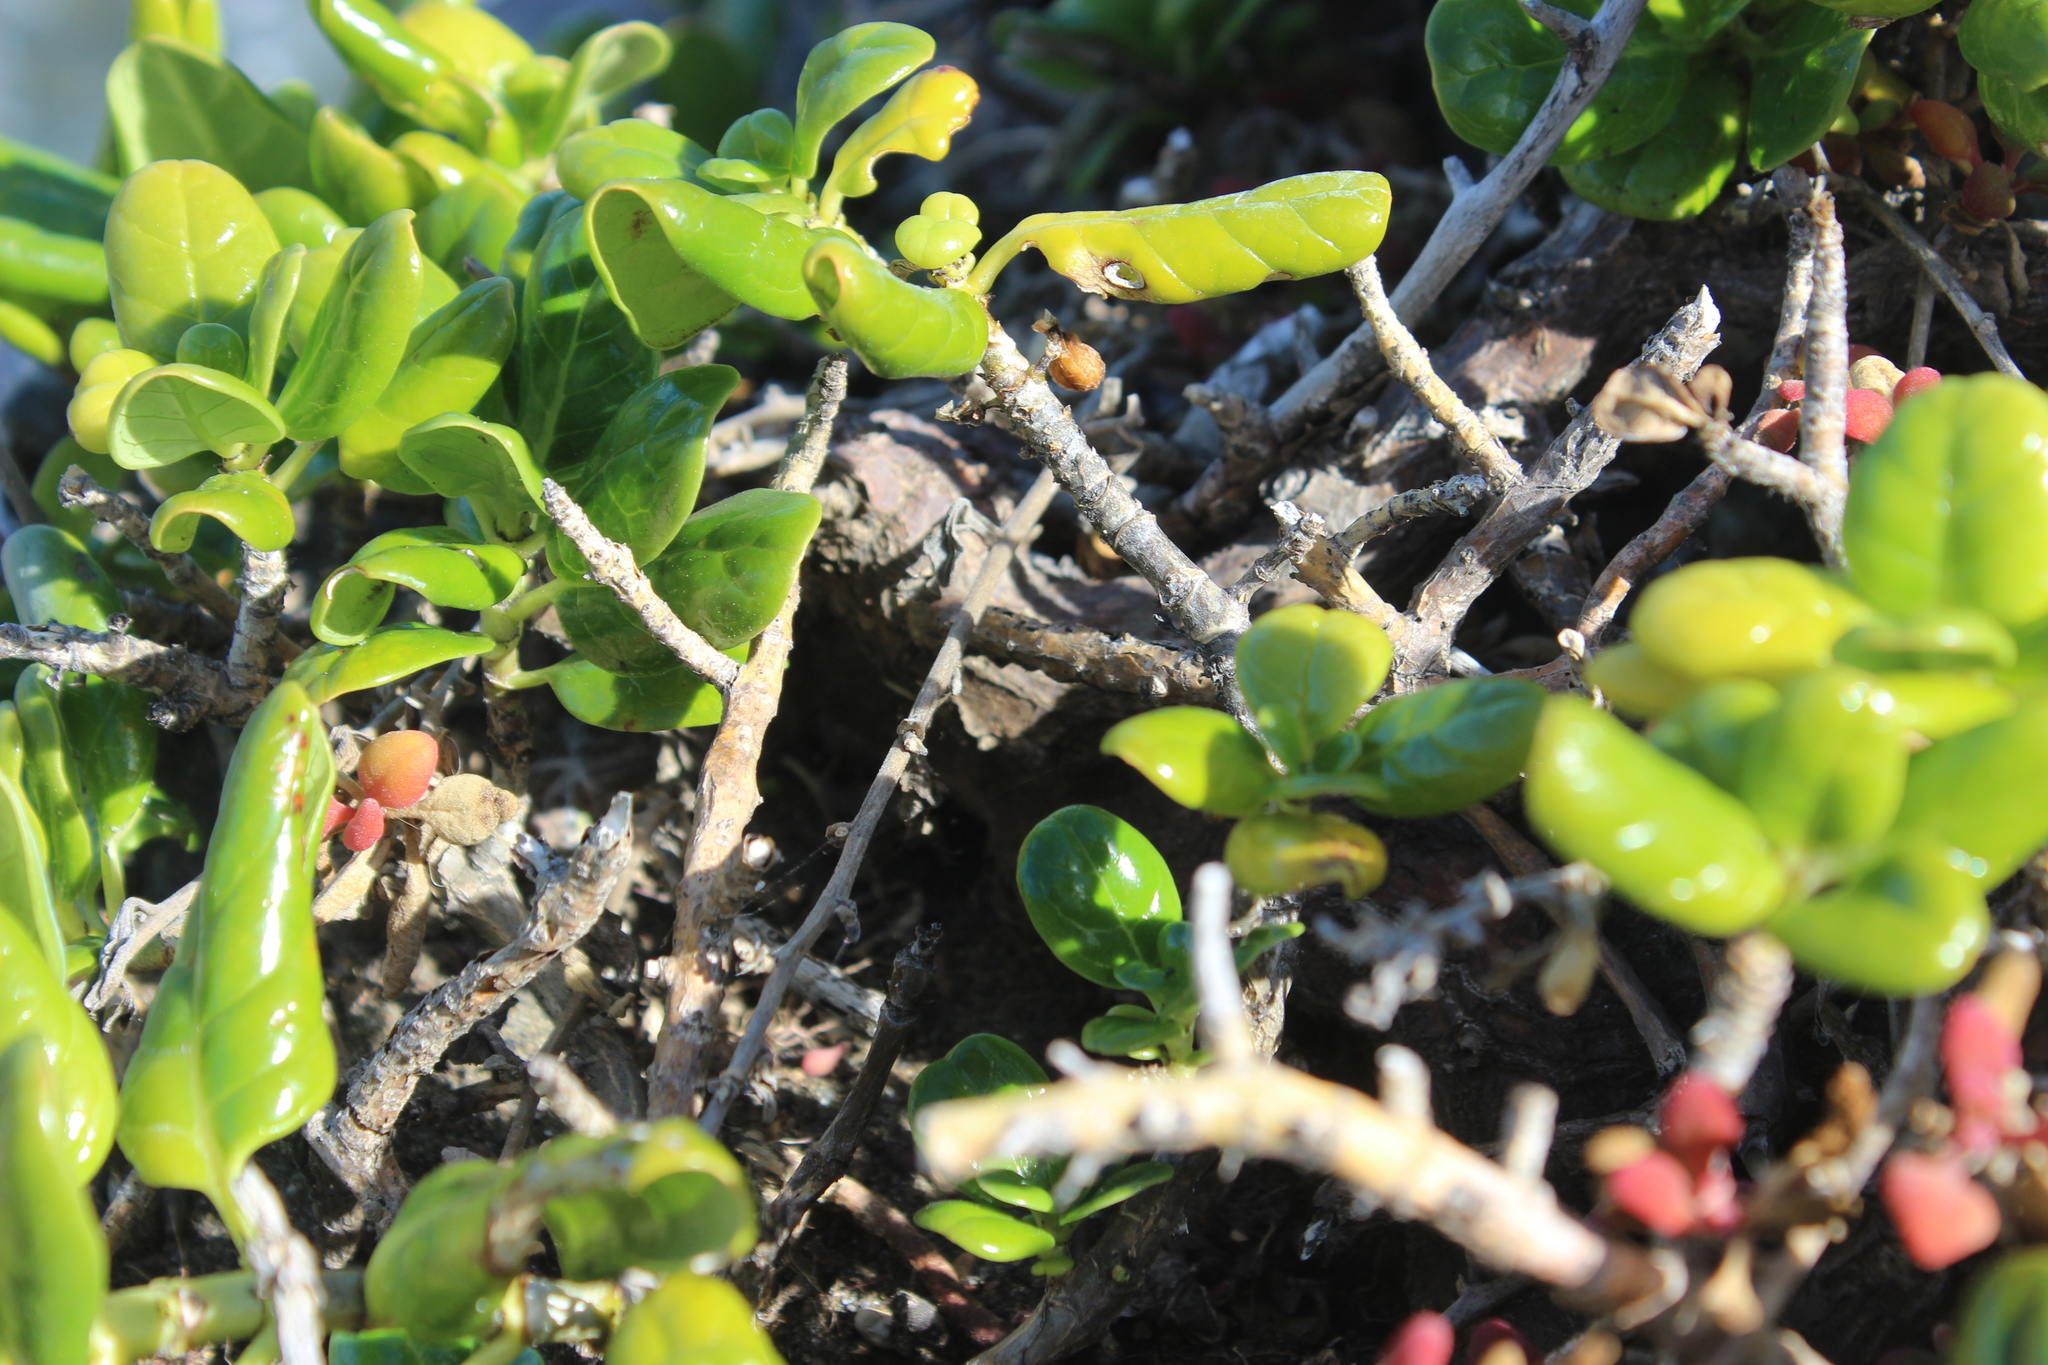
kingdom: Plantae
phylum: Tracheophyta
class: Magnoliopsida
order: Gentianales
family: Rubiaceae
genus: Coprosma
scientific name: Coprosma repens
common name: Tree bedstraw
